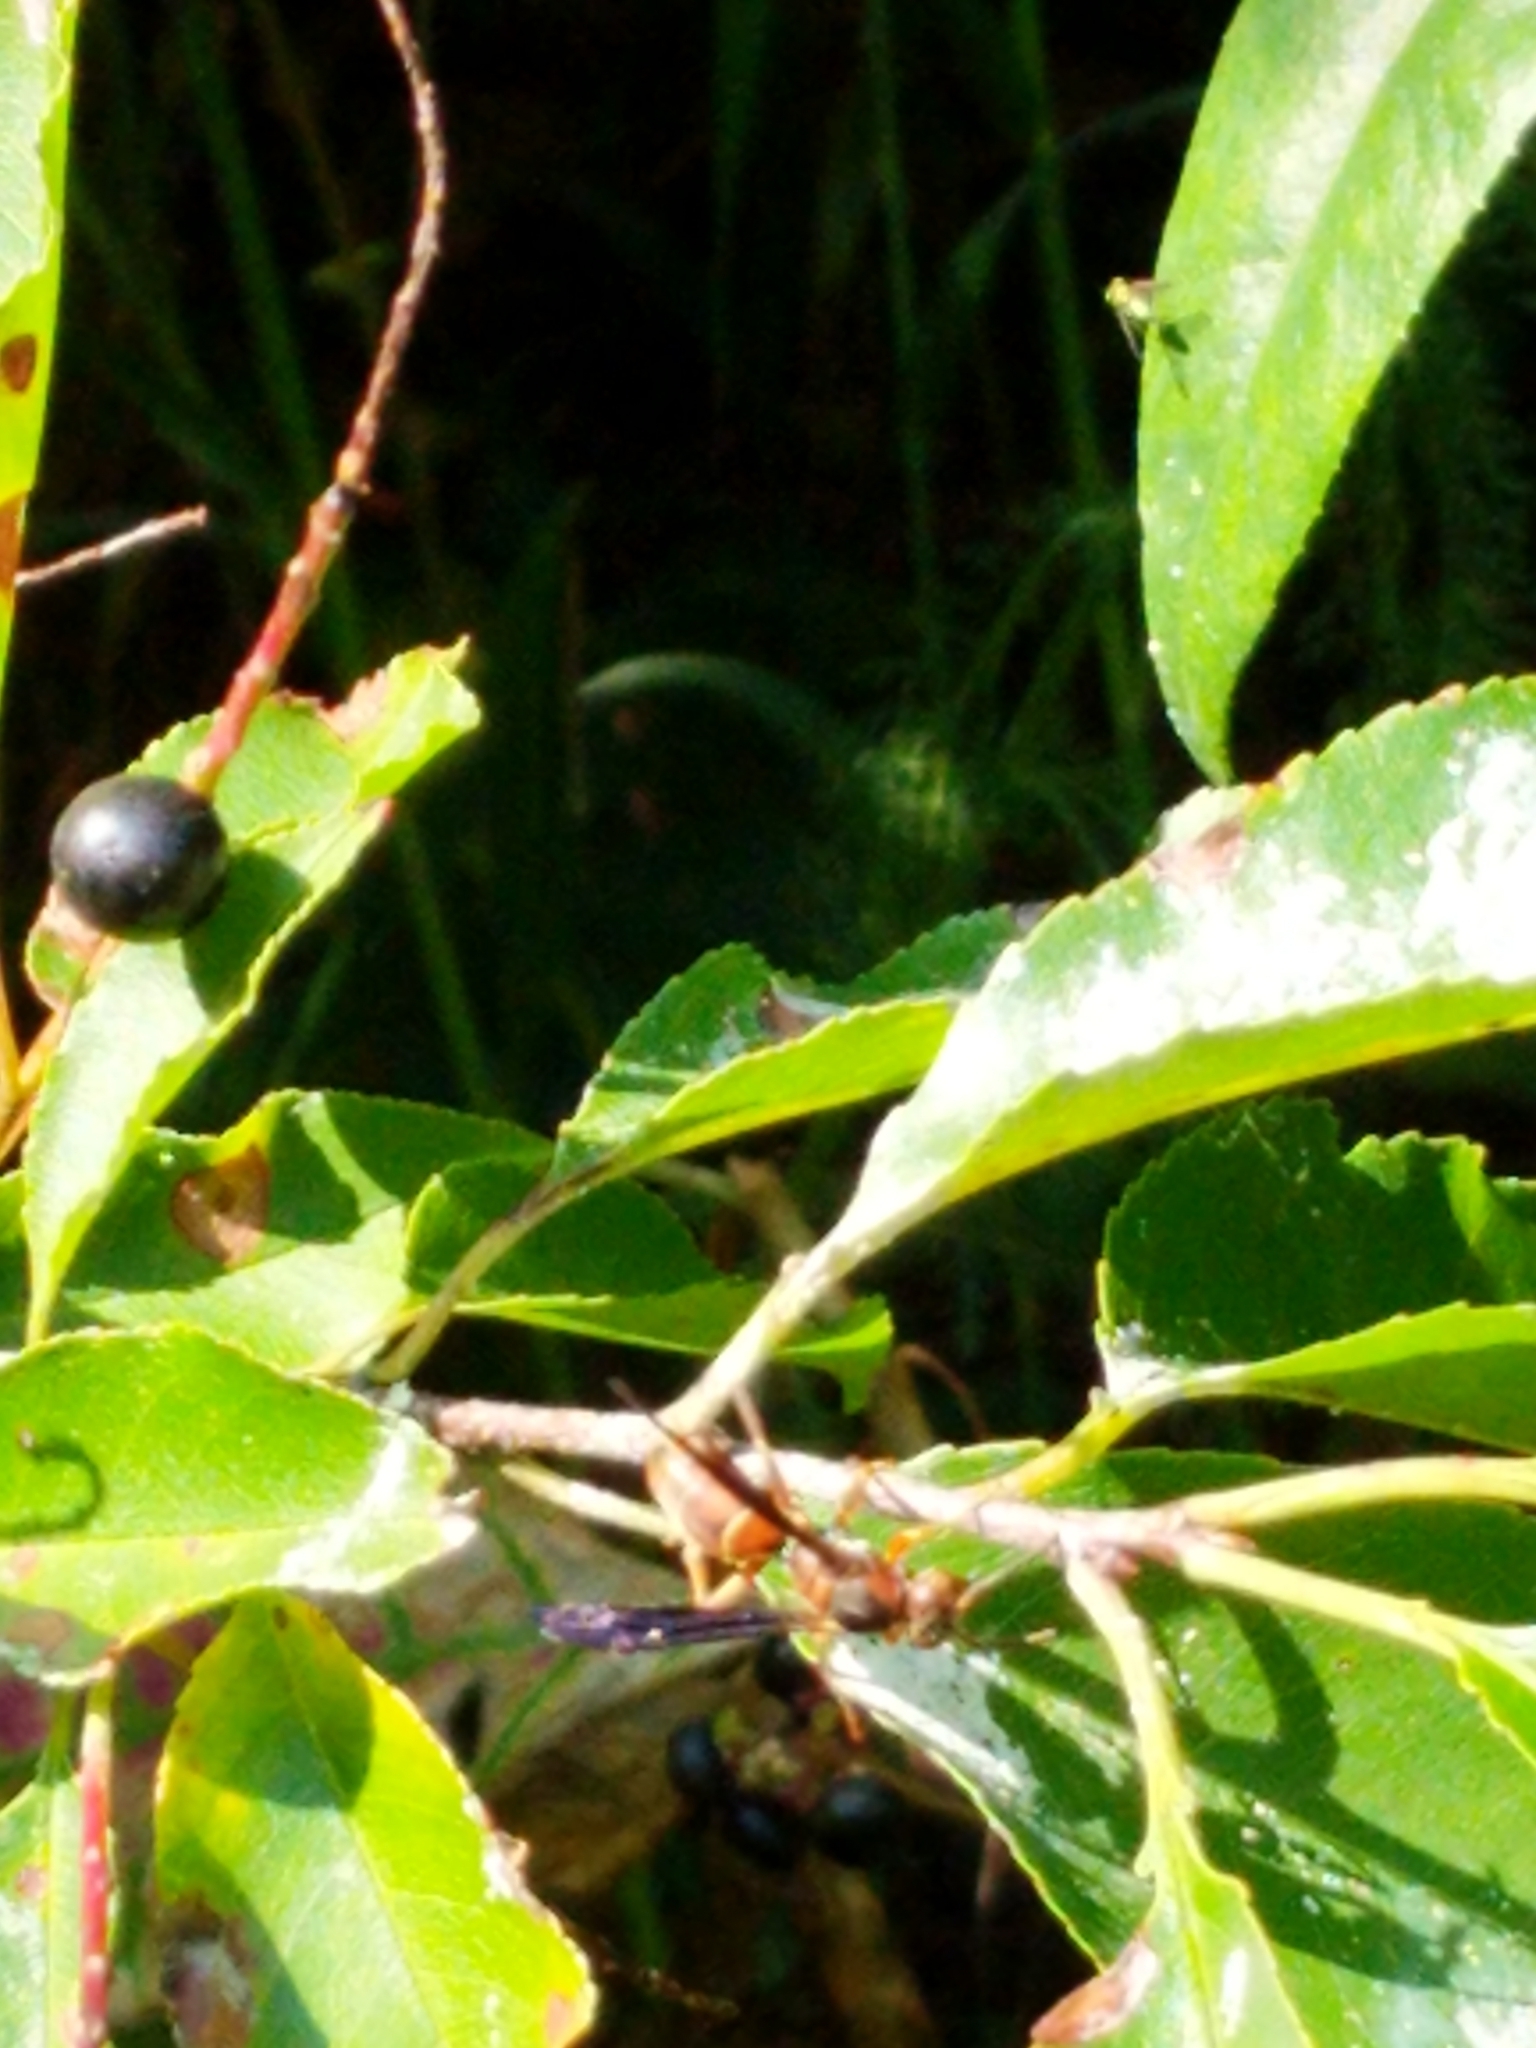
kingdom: Animalia
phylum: Arthropoda
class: Insecta
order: Hymenoptera
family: Vespidae
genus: Fuscopolistes
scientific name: Fuscopolistes
